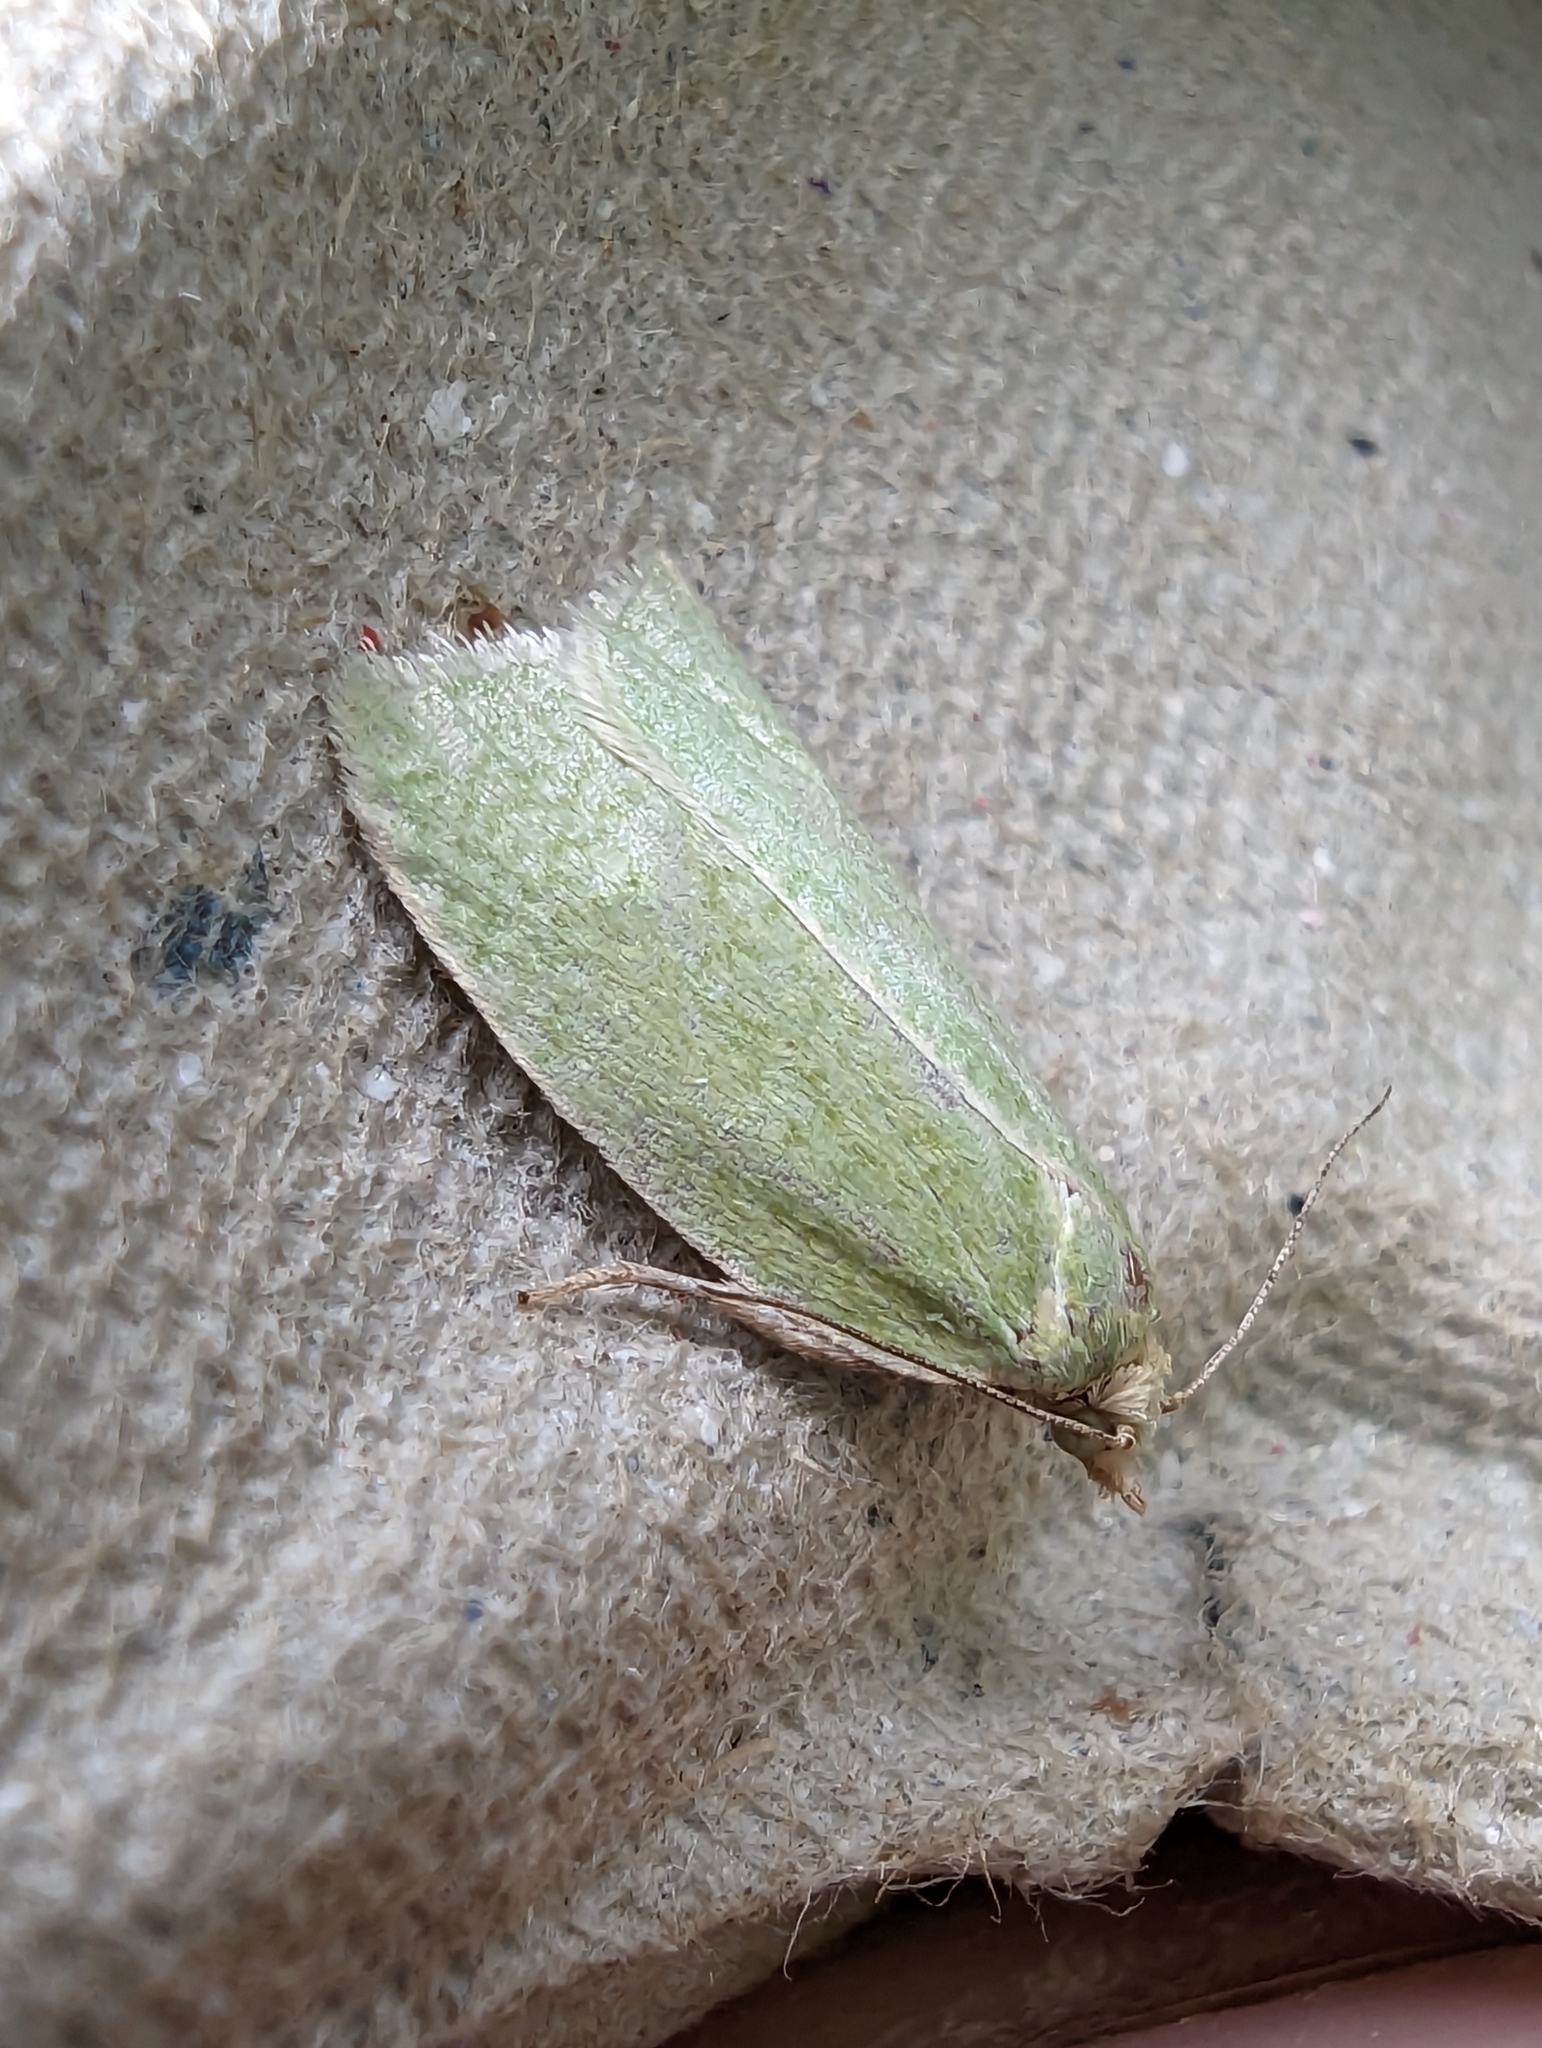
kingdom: Animalia
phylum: Arthropoda
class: Insecta
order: Lepidoptera
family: Tortricidae
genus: Tortrix
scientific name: Tortrix viridana
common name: Green oak tortrix
